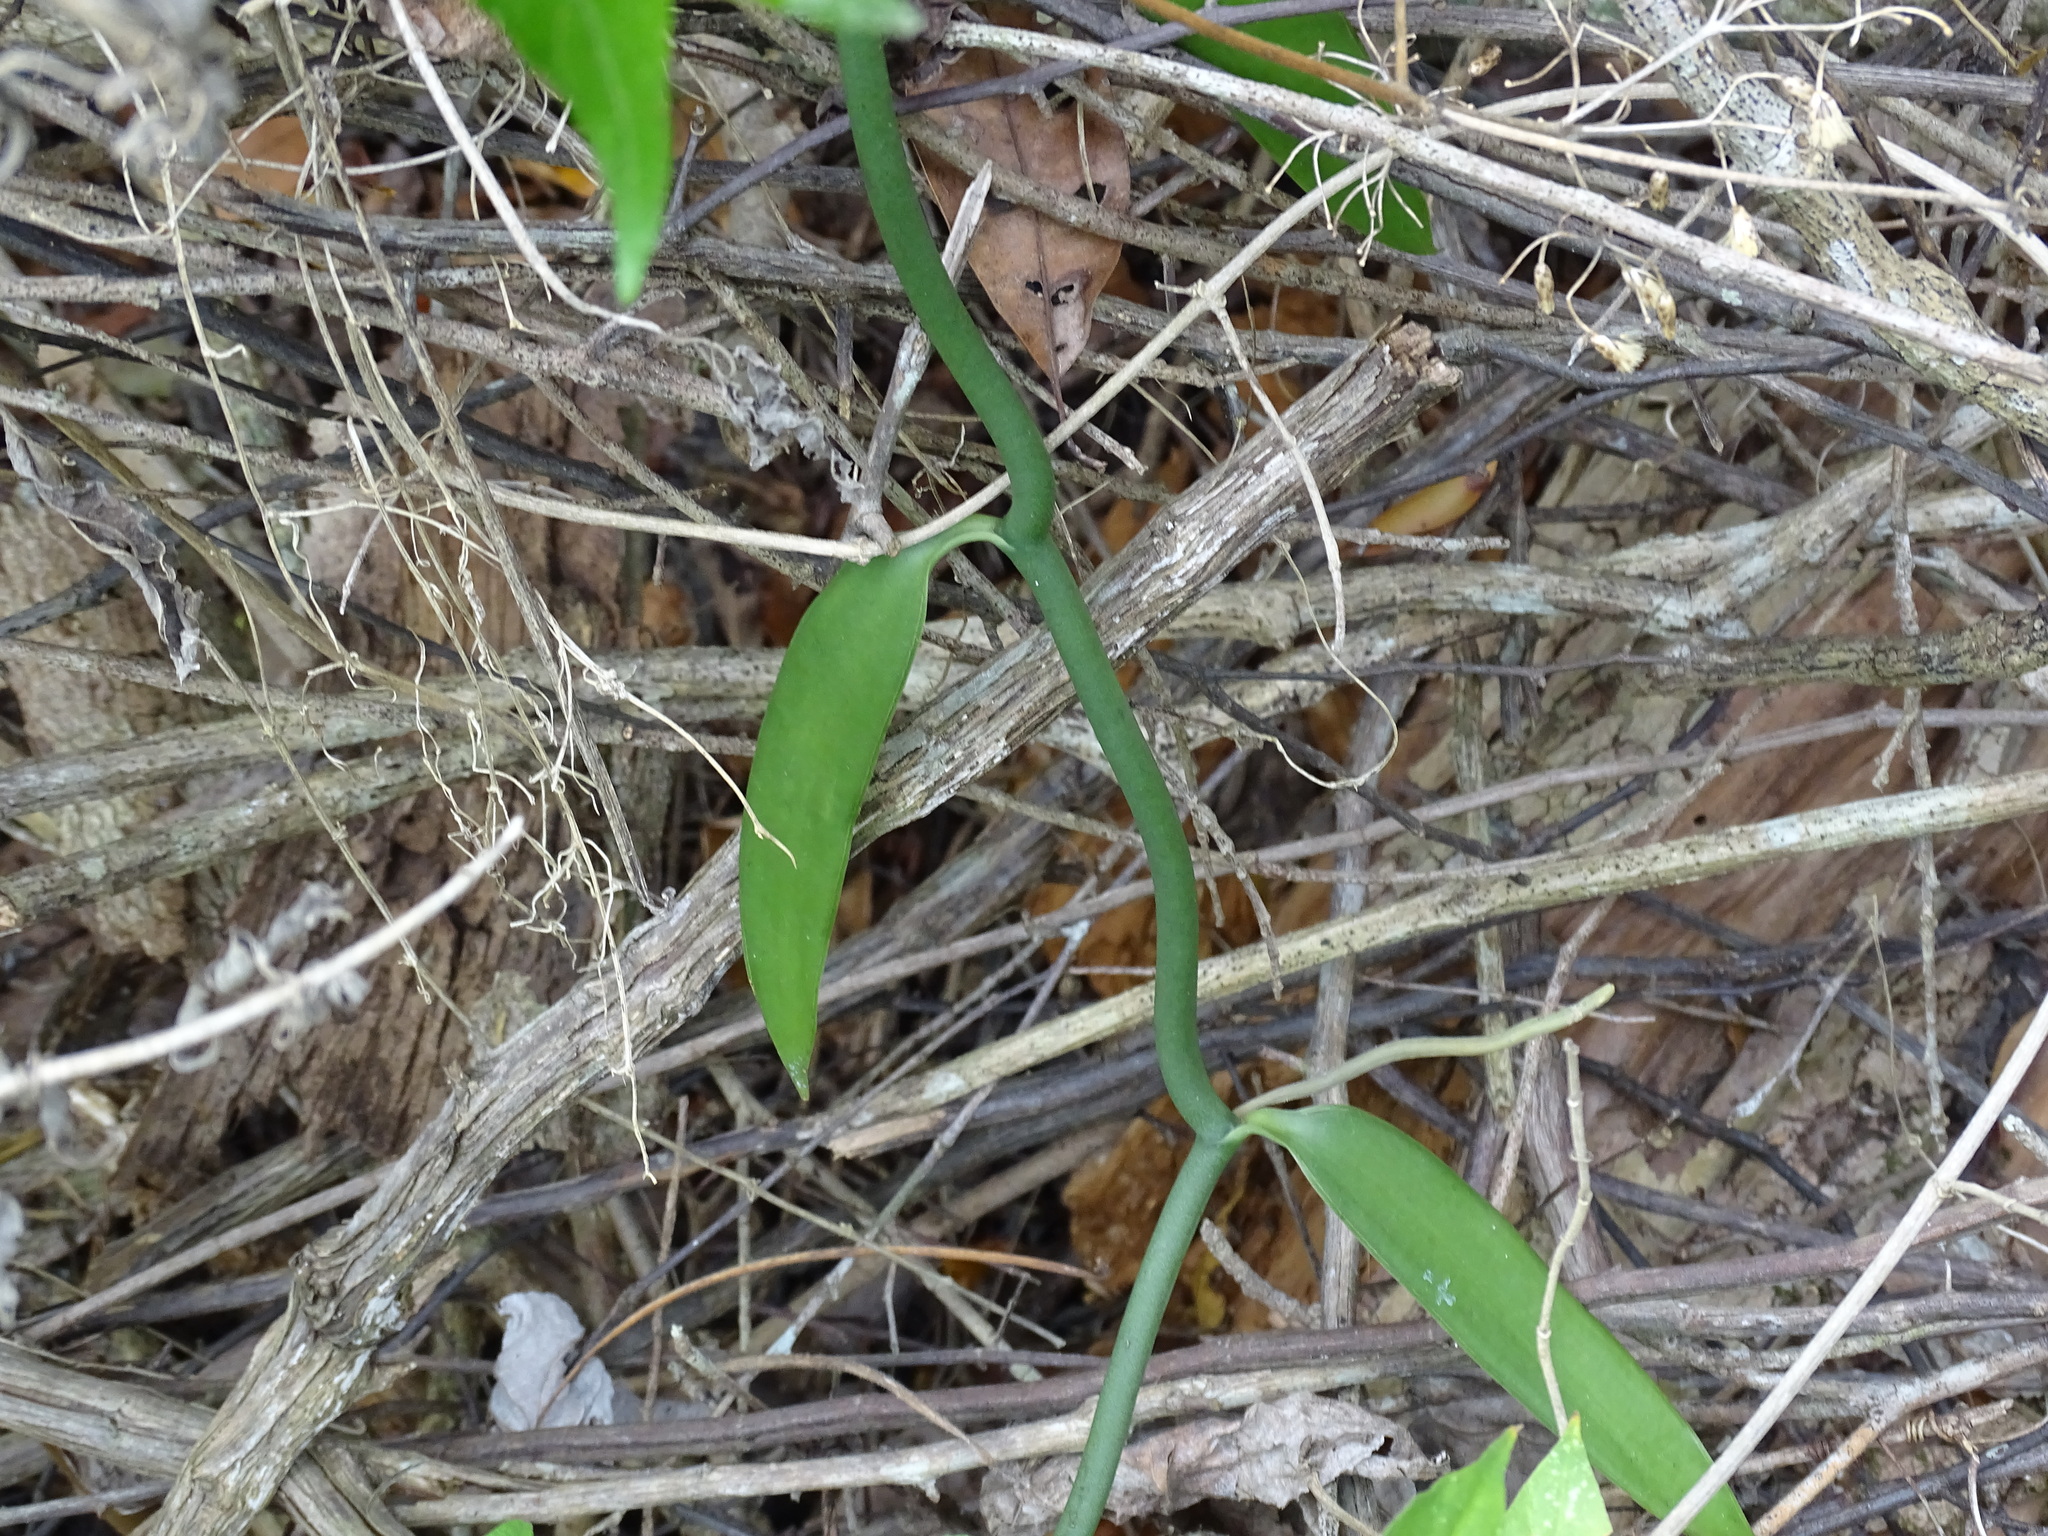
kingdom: Plantae
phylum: Tracheophyta
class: Liliopsida
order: Asparagales
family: Orchidaceae
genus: Vanilla
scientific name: Vanilla insignis
